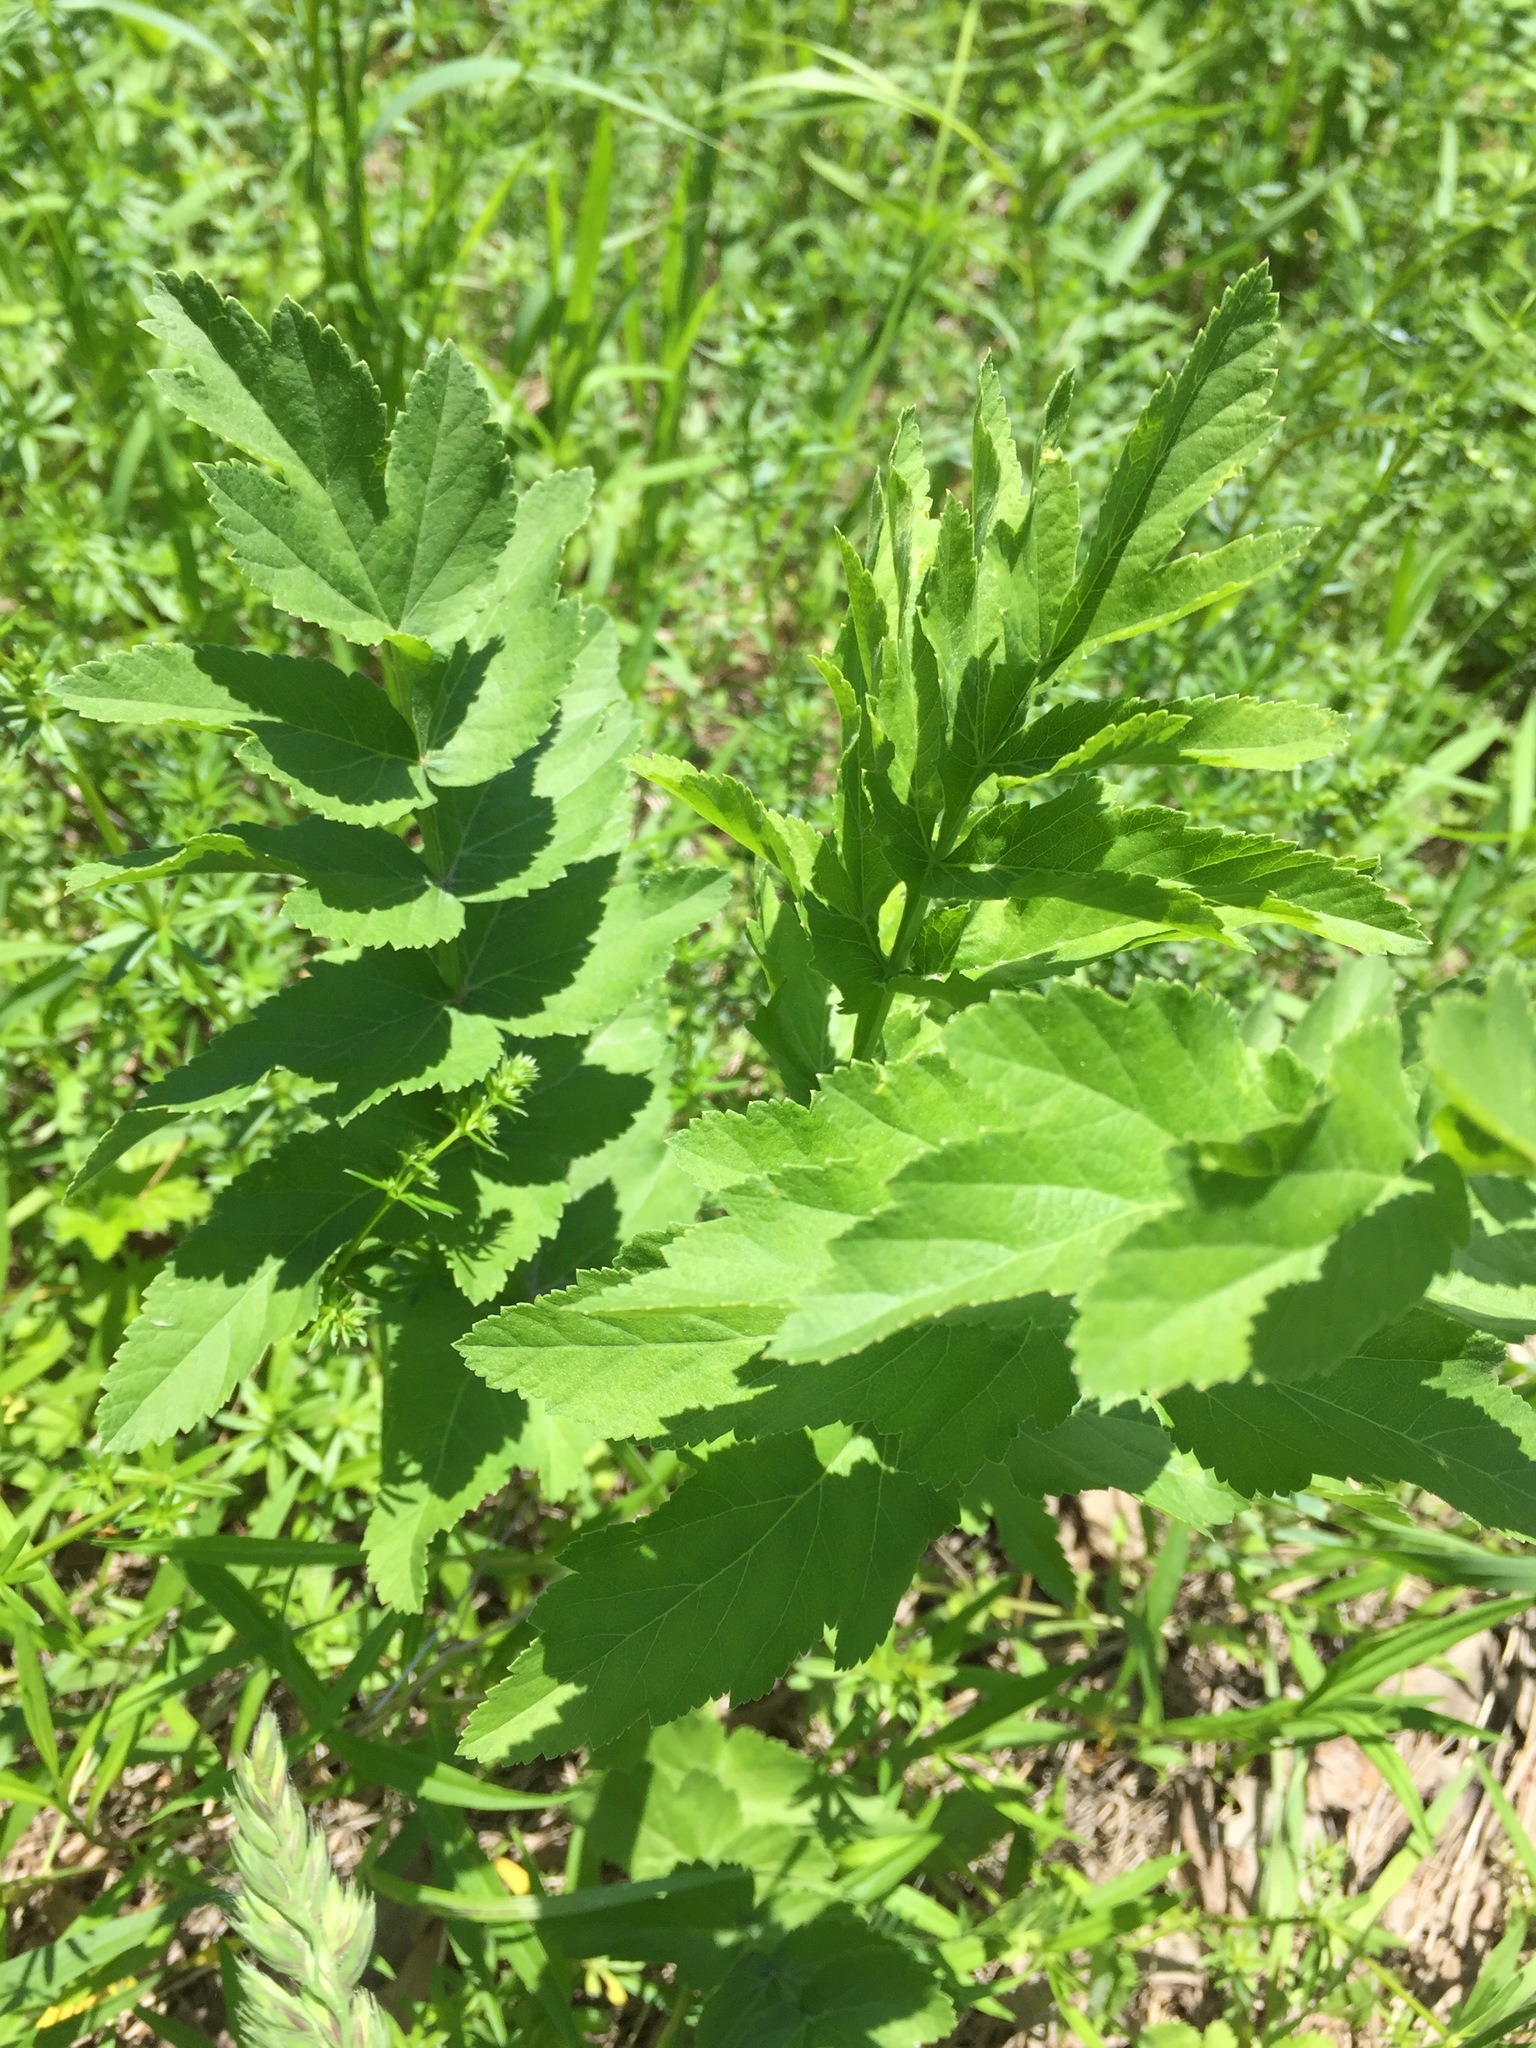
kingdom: Plantae
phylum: Tracheophyta
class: Magnoliopsida
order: Apiales
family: Apiaceae
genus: Pastinaca
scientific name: Pastinaca sativa
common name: Wild parsnip
